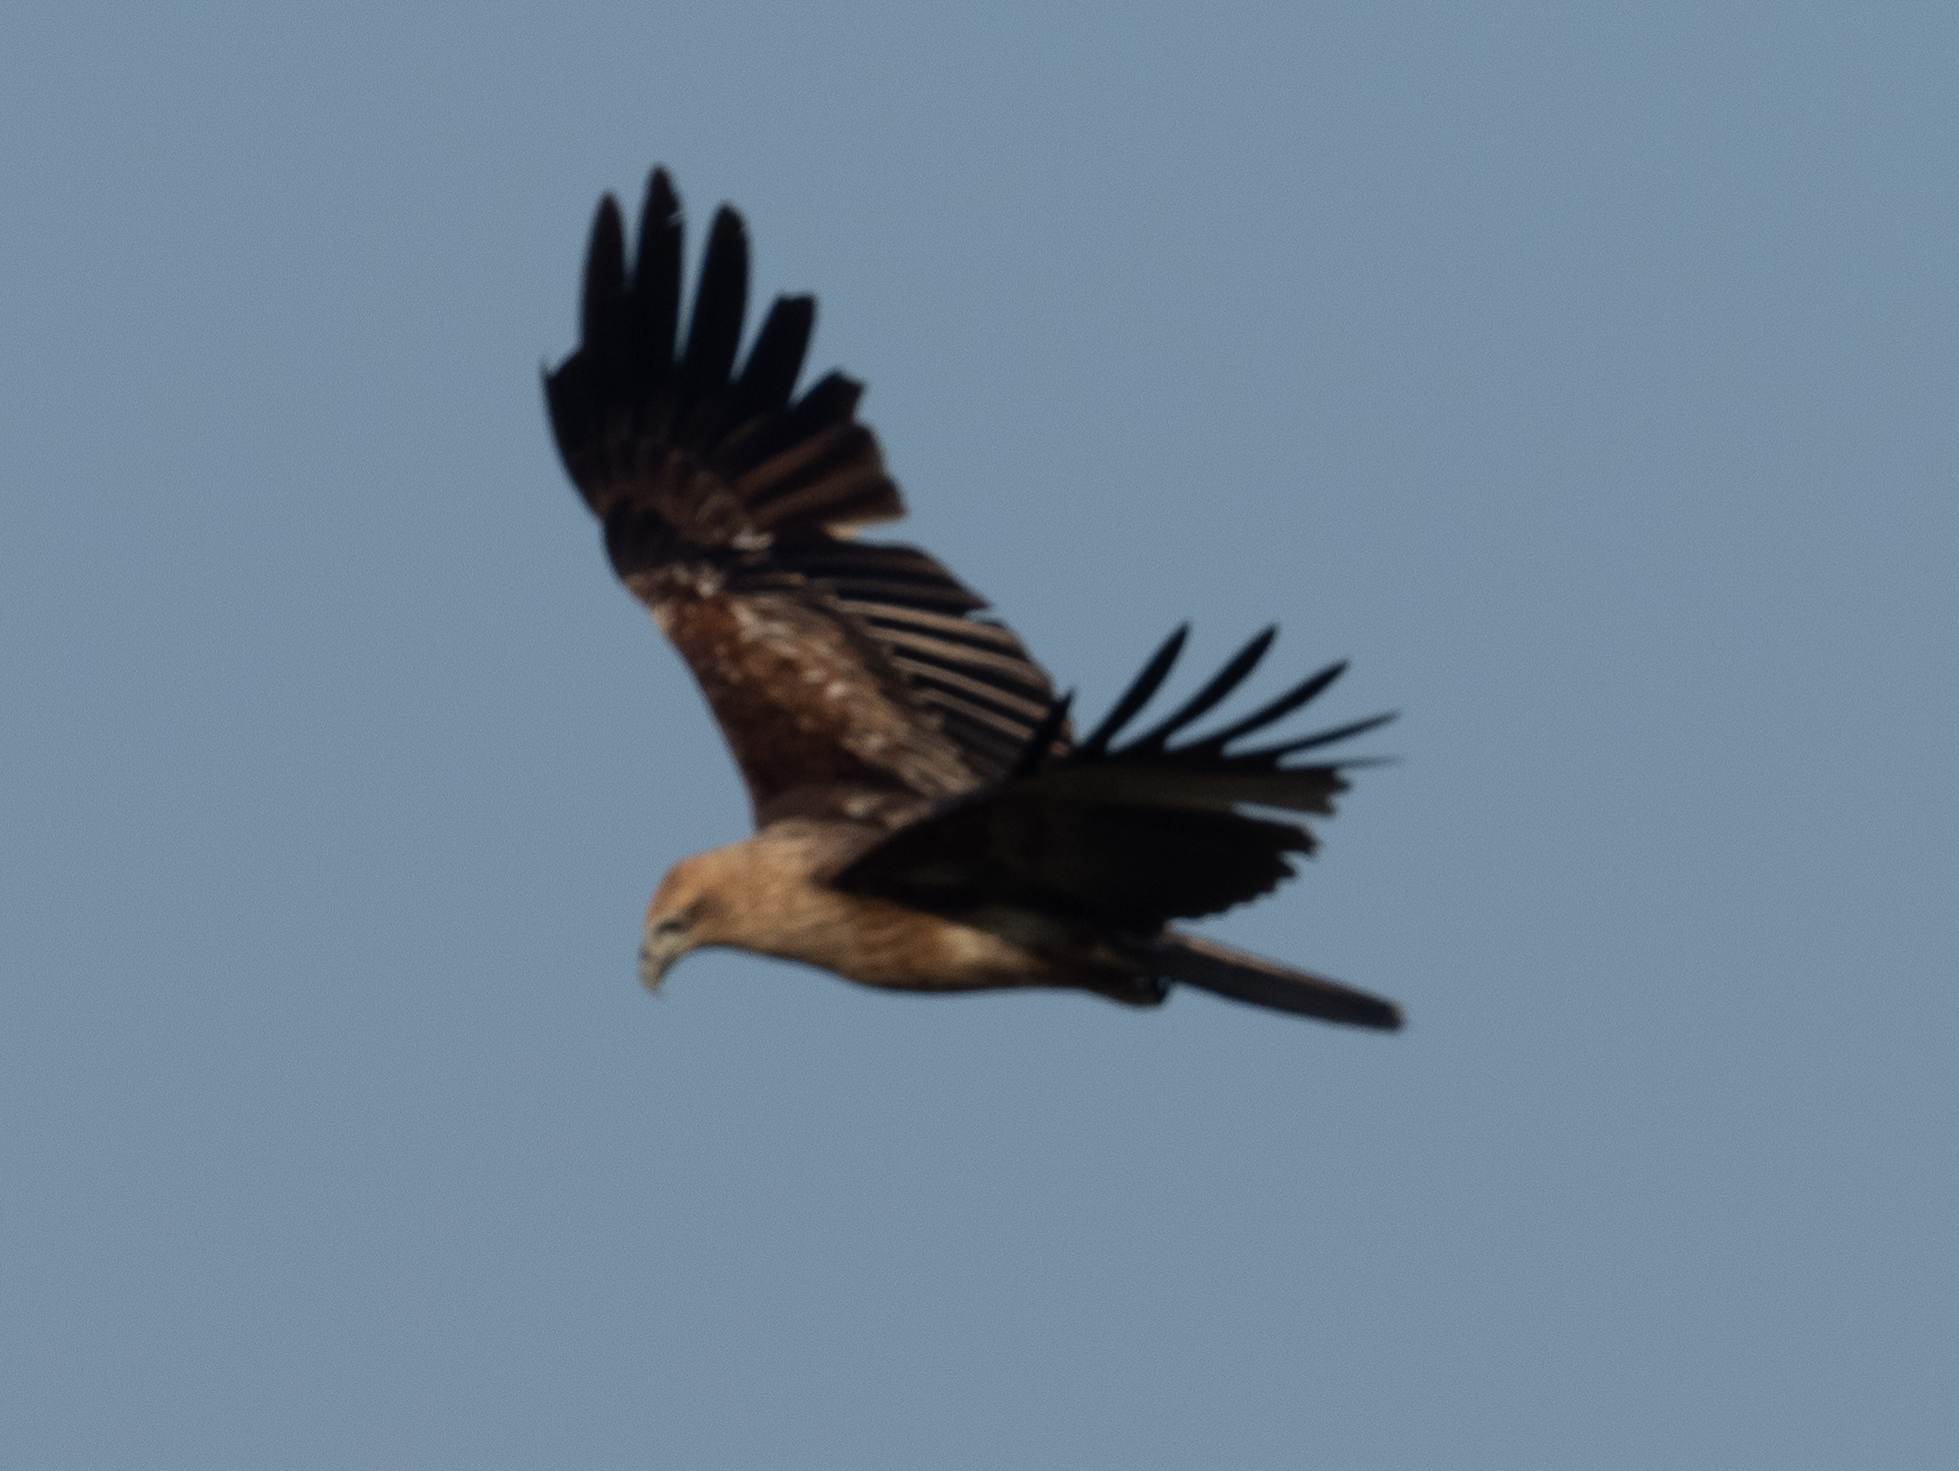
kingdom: Animalia
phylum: Chordata
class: Aves
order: Accipitriformes
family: Accipitridae
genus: Haliastur
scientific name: Haliastur indus
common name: Brahminy kite
